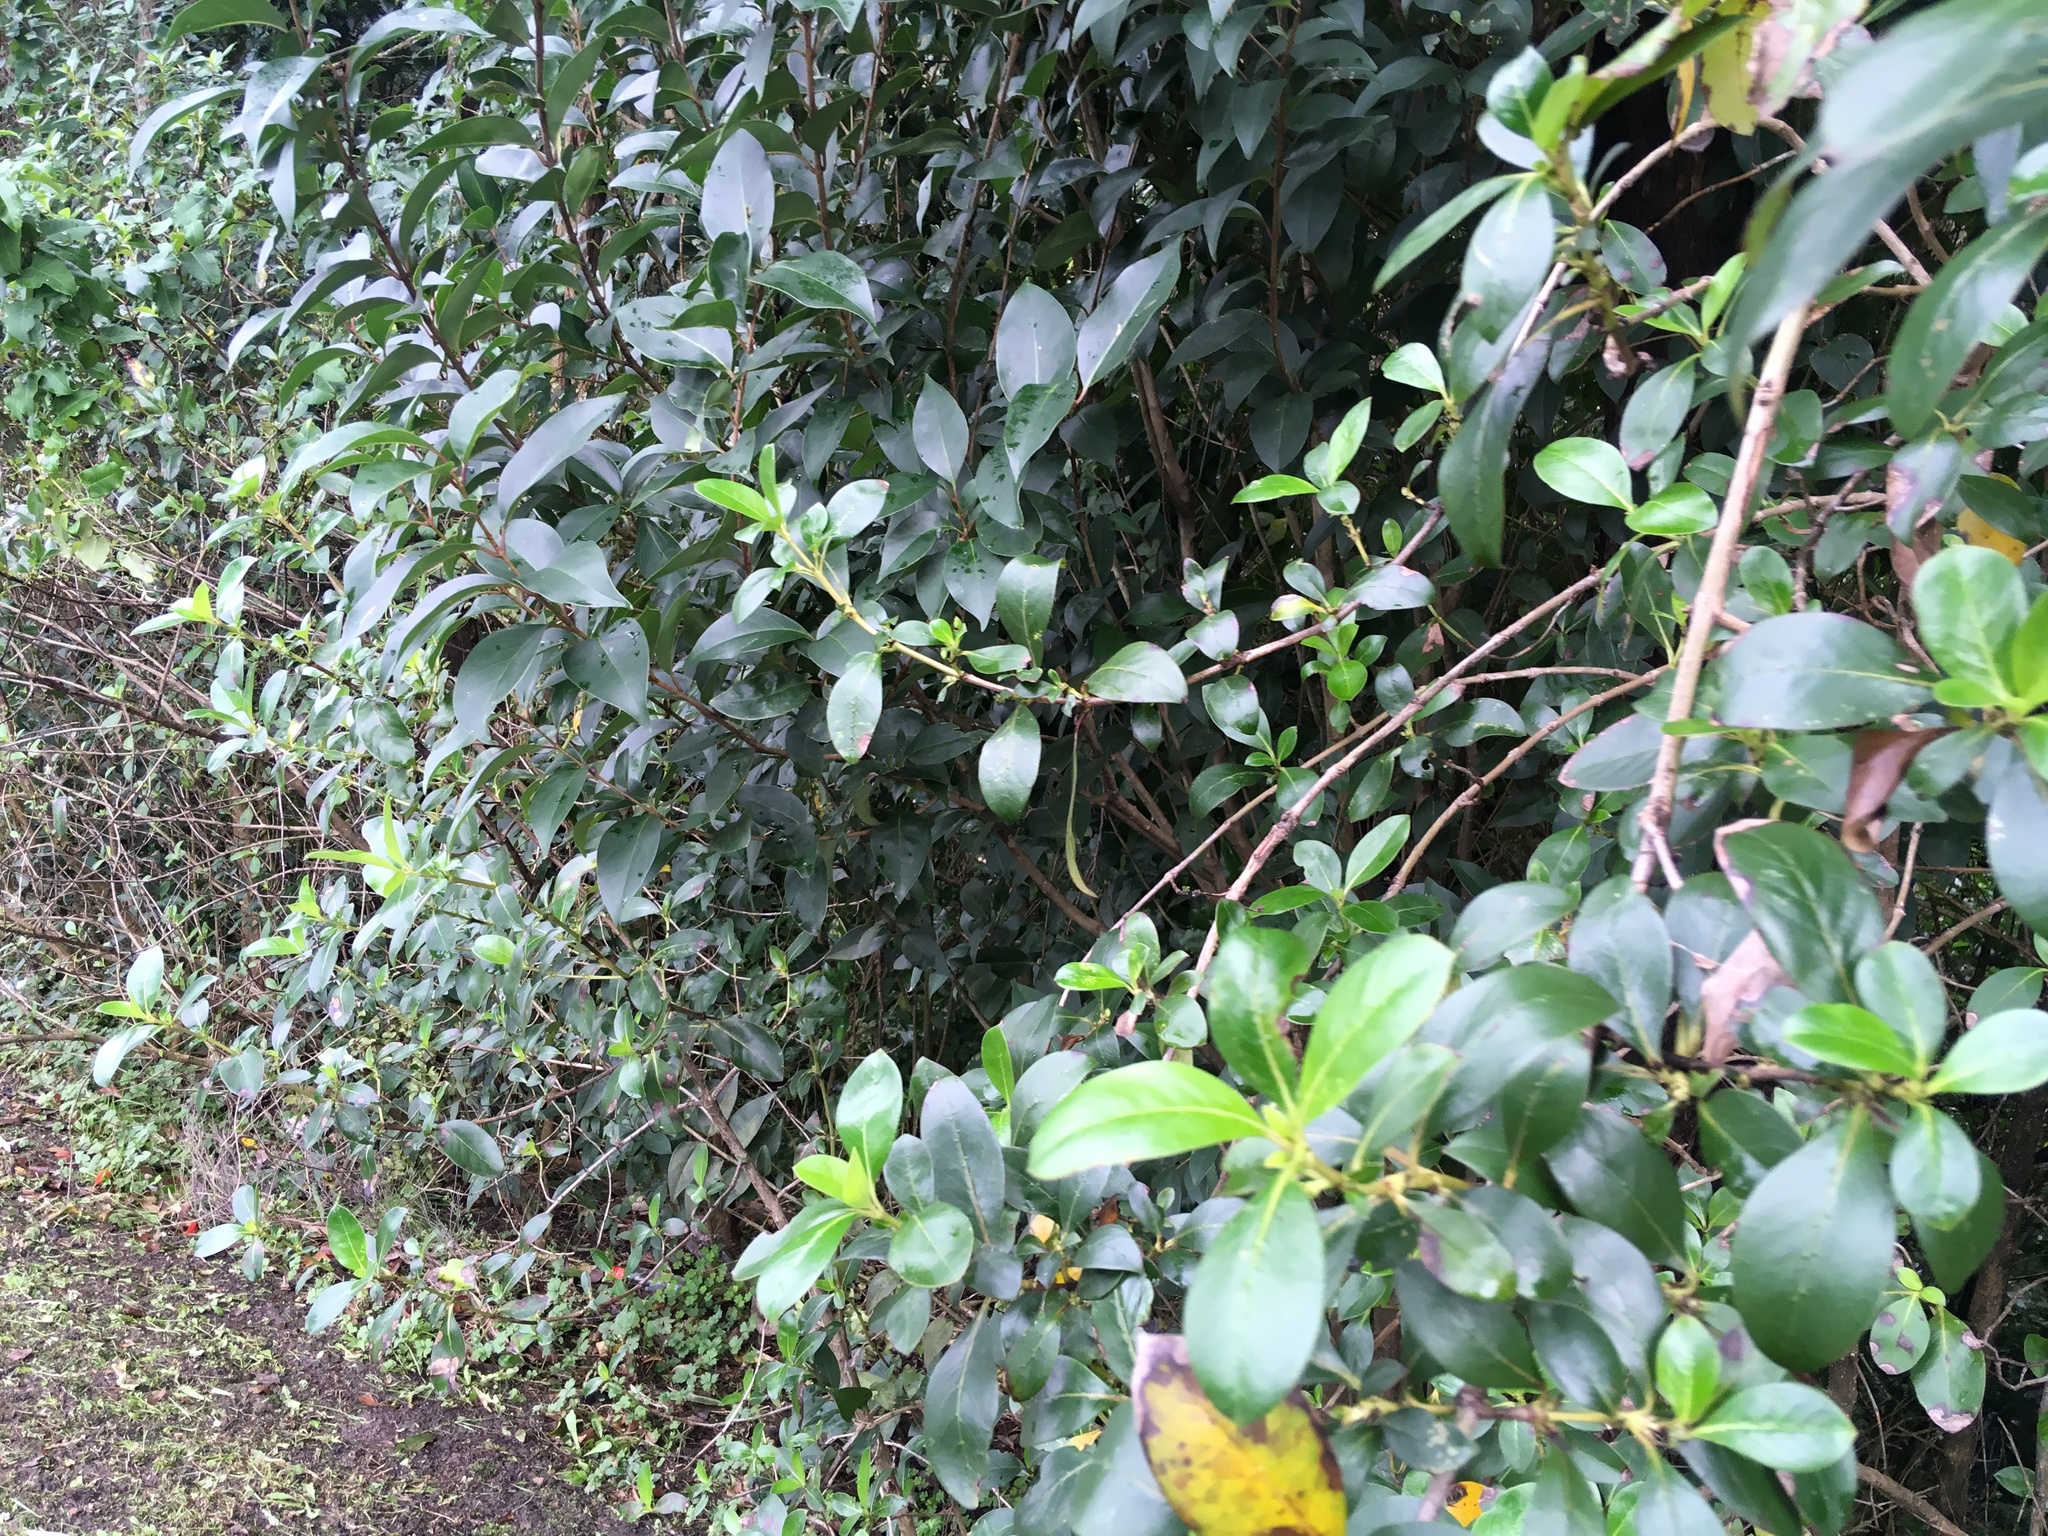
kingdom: Plantae
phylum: Tracheophyta
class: Magnoliopsida
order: Lamiales
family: Oleaceae
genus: Ligustrum
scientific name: Ligustrum lucidum
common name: Glossy privet
